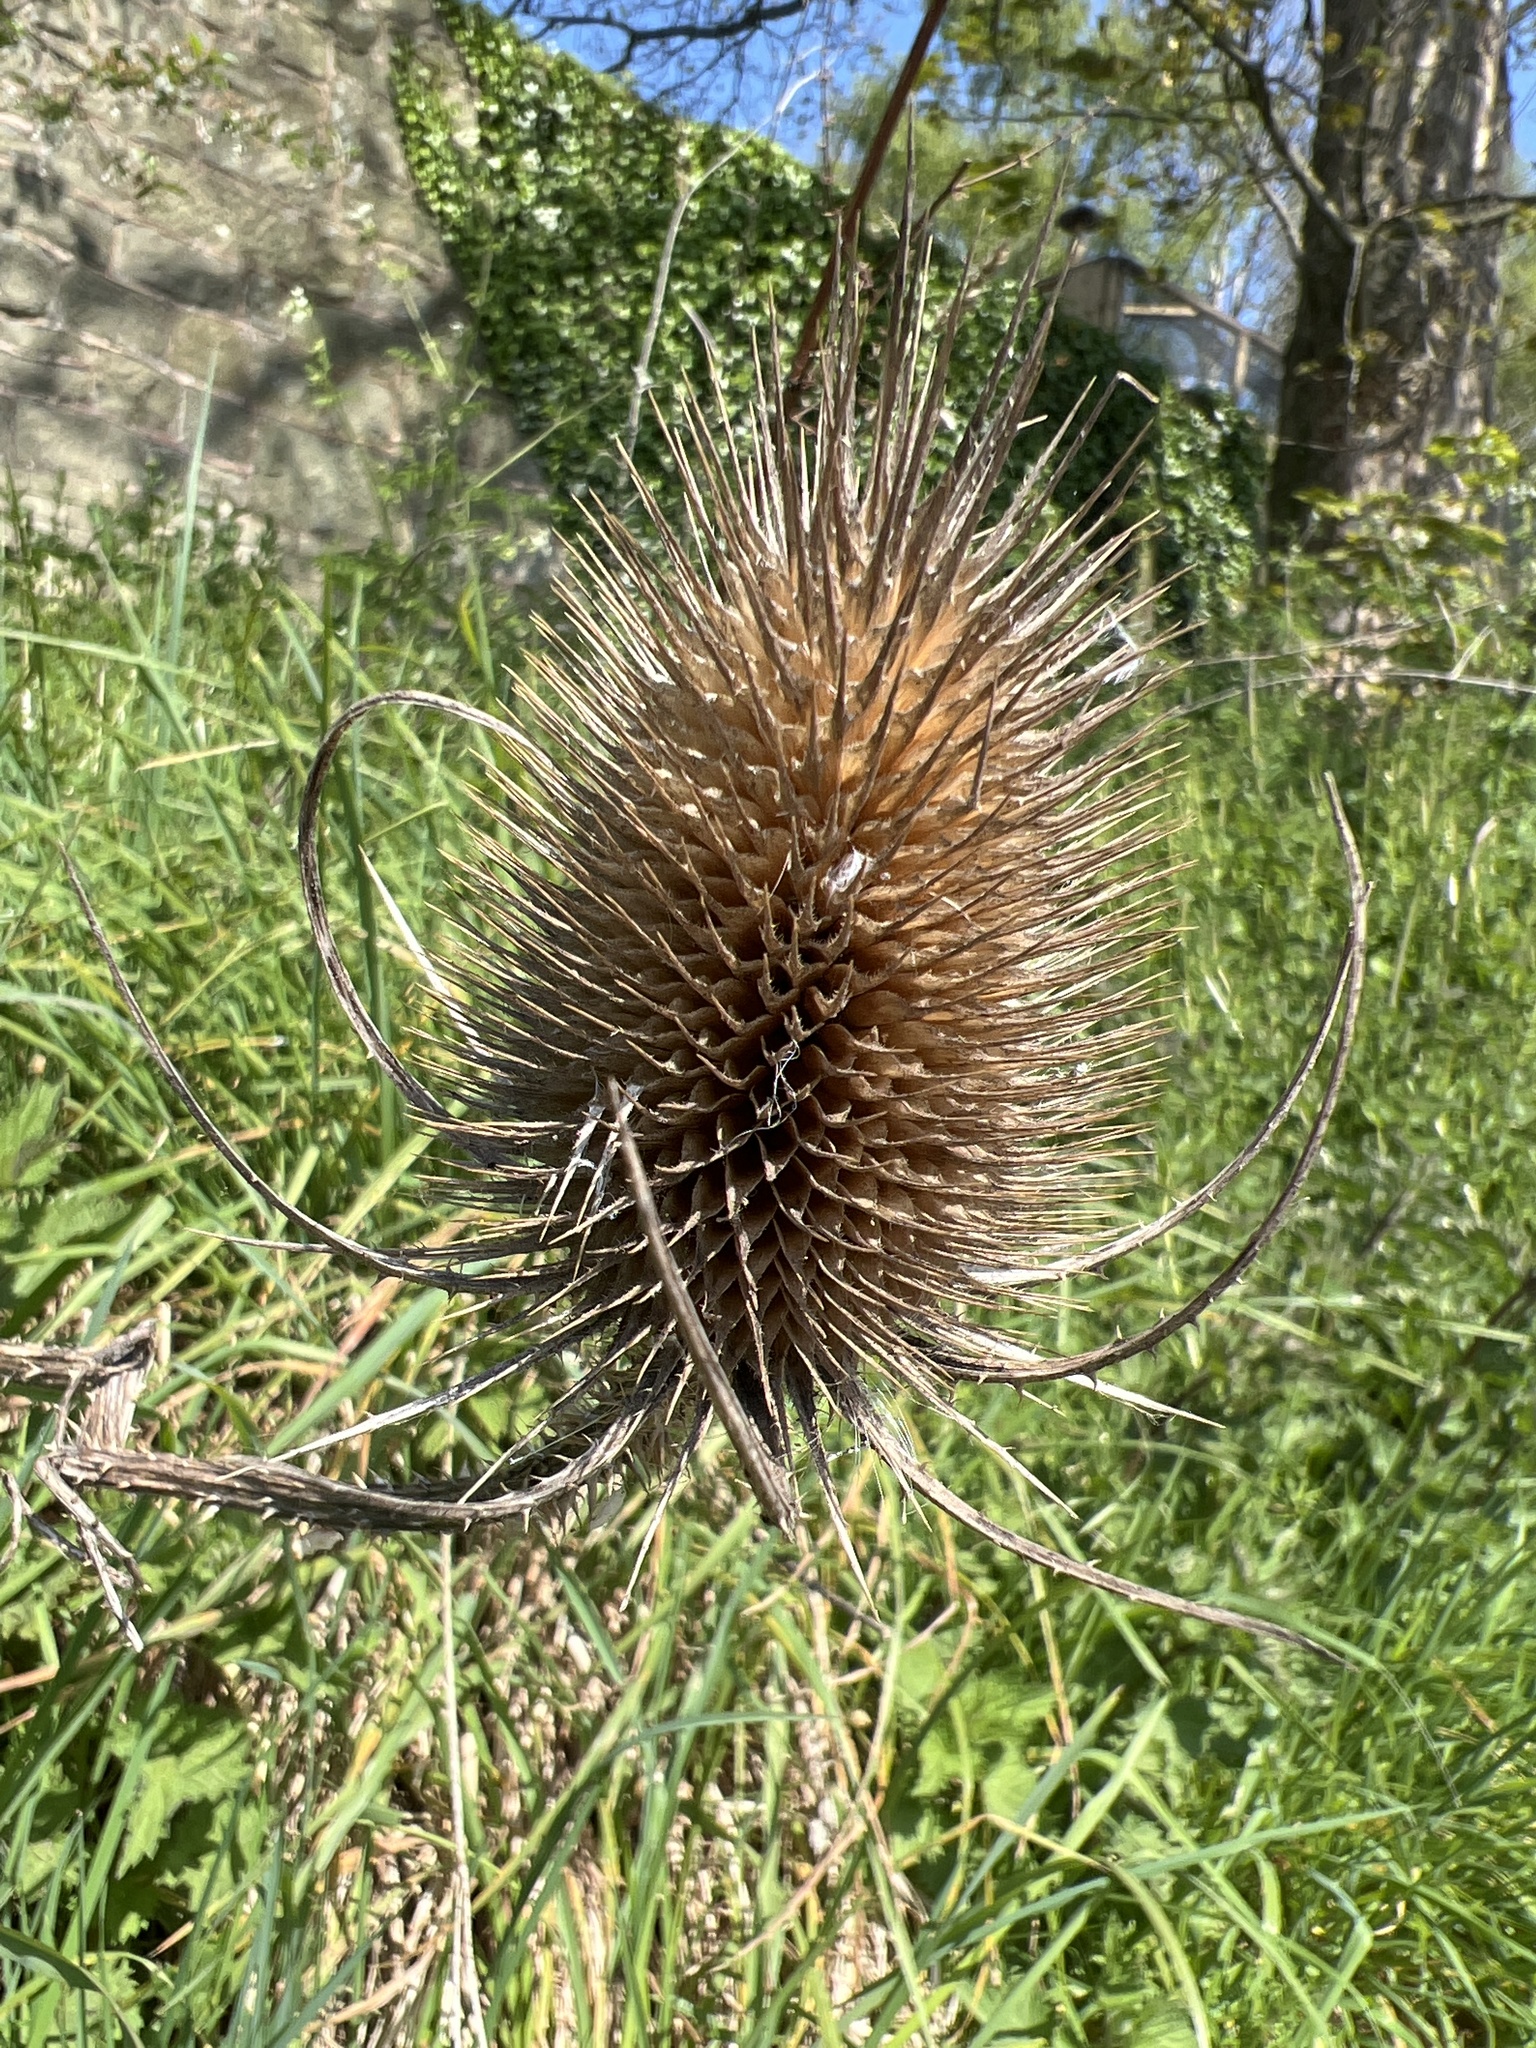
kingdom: Plantae
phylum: Tracheophyta
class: Magnoliopsida
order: Dipsacales
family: Caprifoliaceae
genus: Dipsacus
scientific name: Dipsacus fullonum
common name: Teasel
